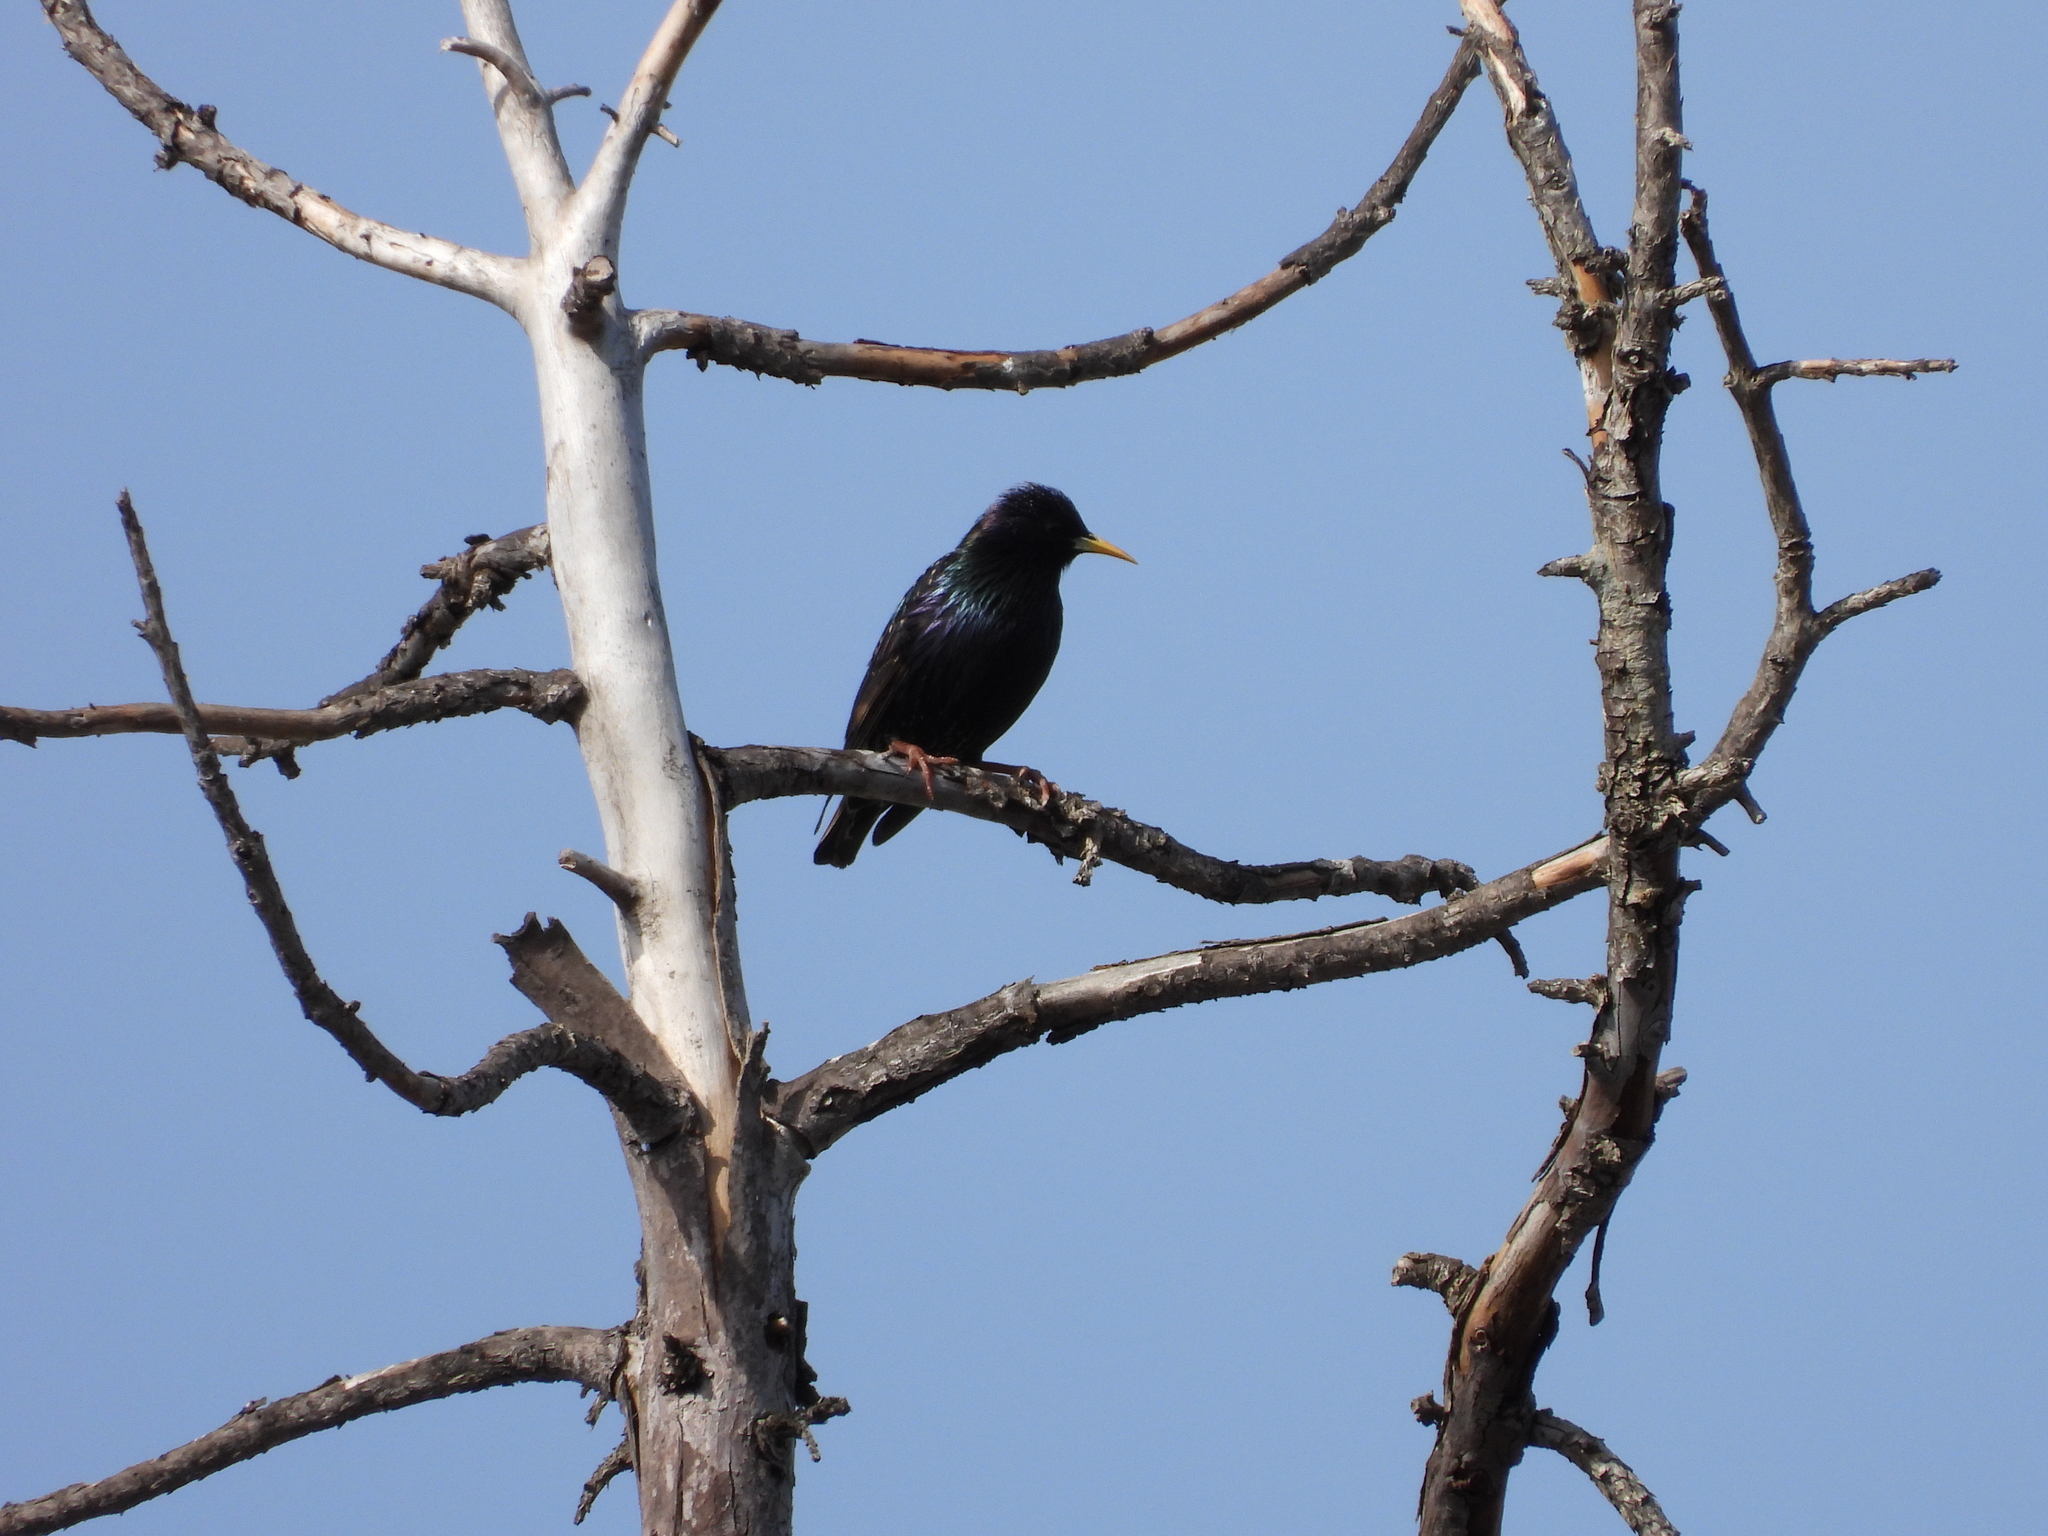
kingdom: Animalia
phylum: Chordata
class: Aves
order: Passeriformes
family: Sturnidae
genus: Sturnus
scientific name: Sturnus vulgaris
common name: Common starling
